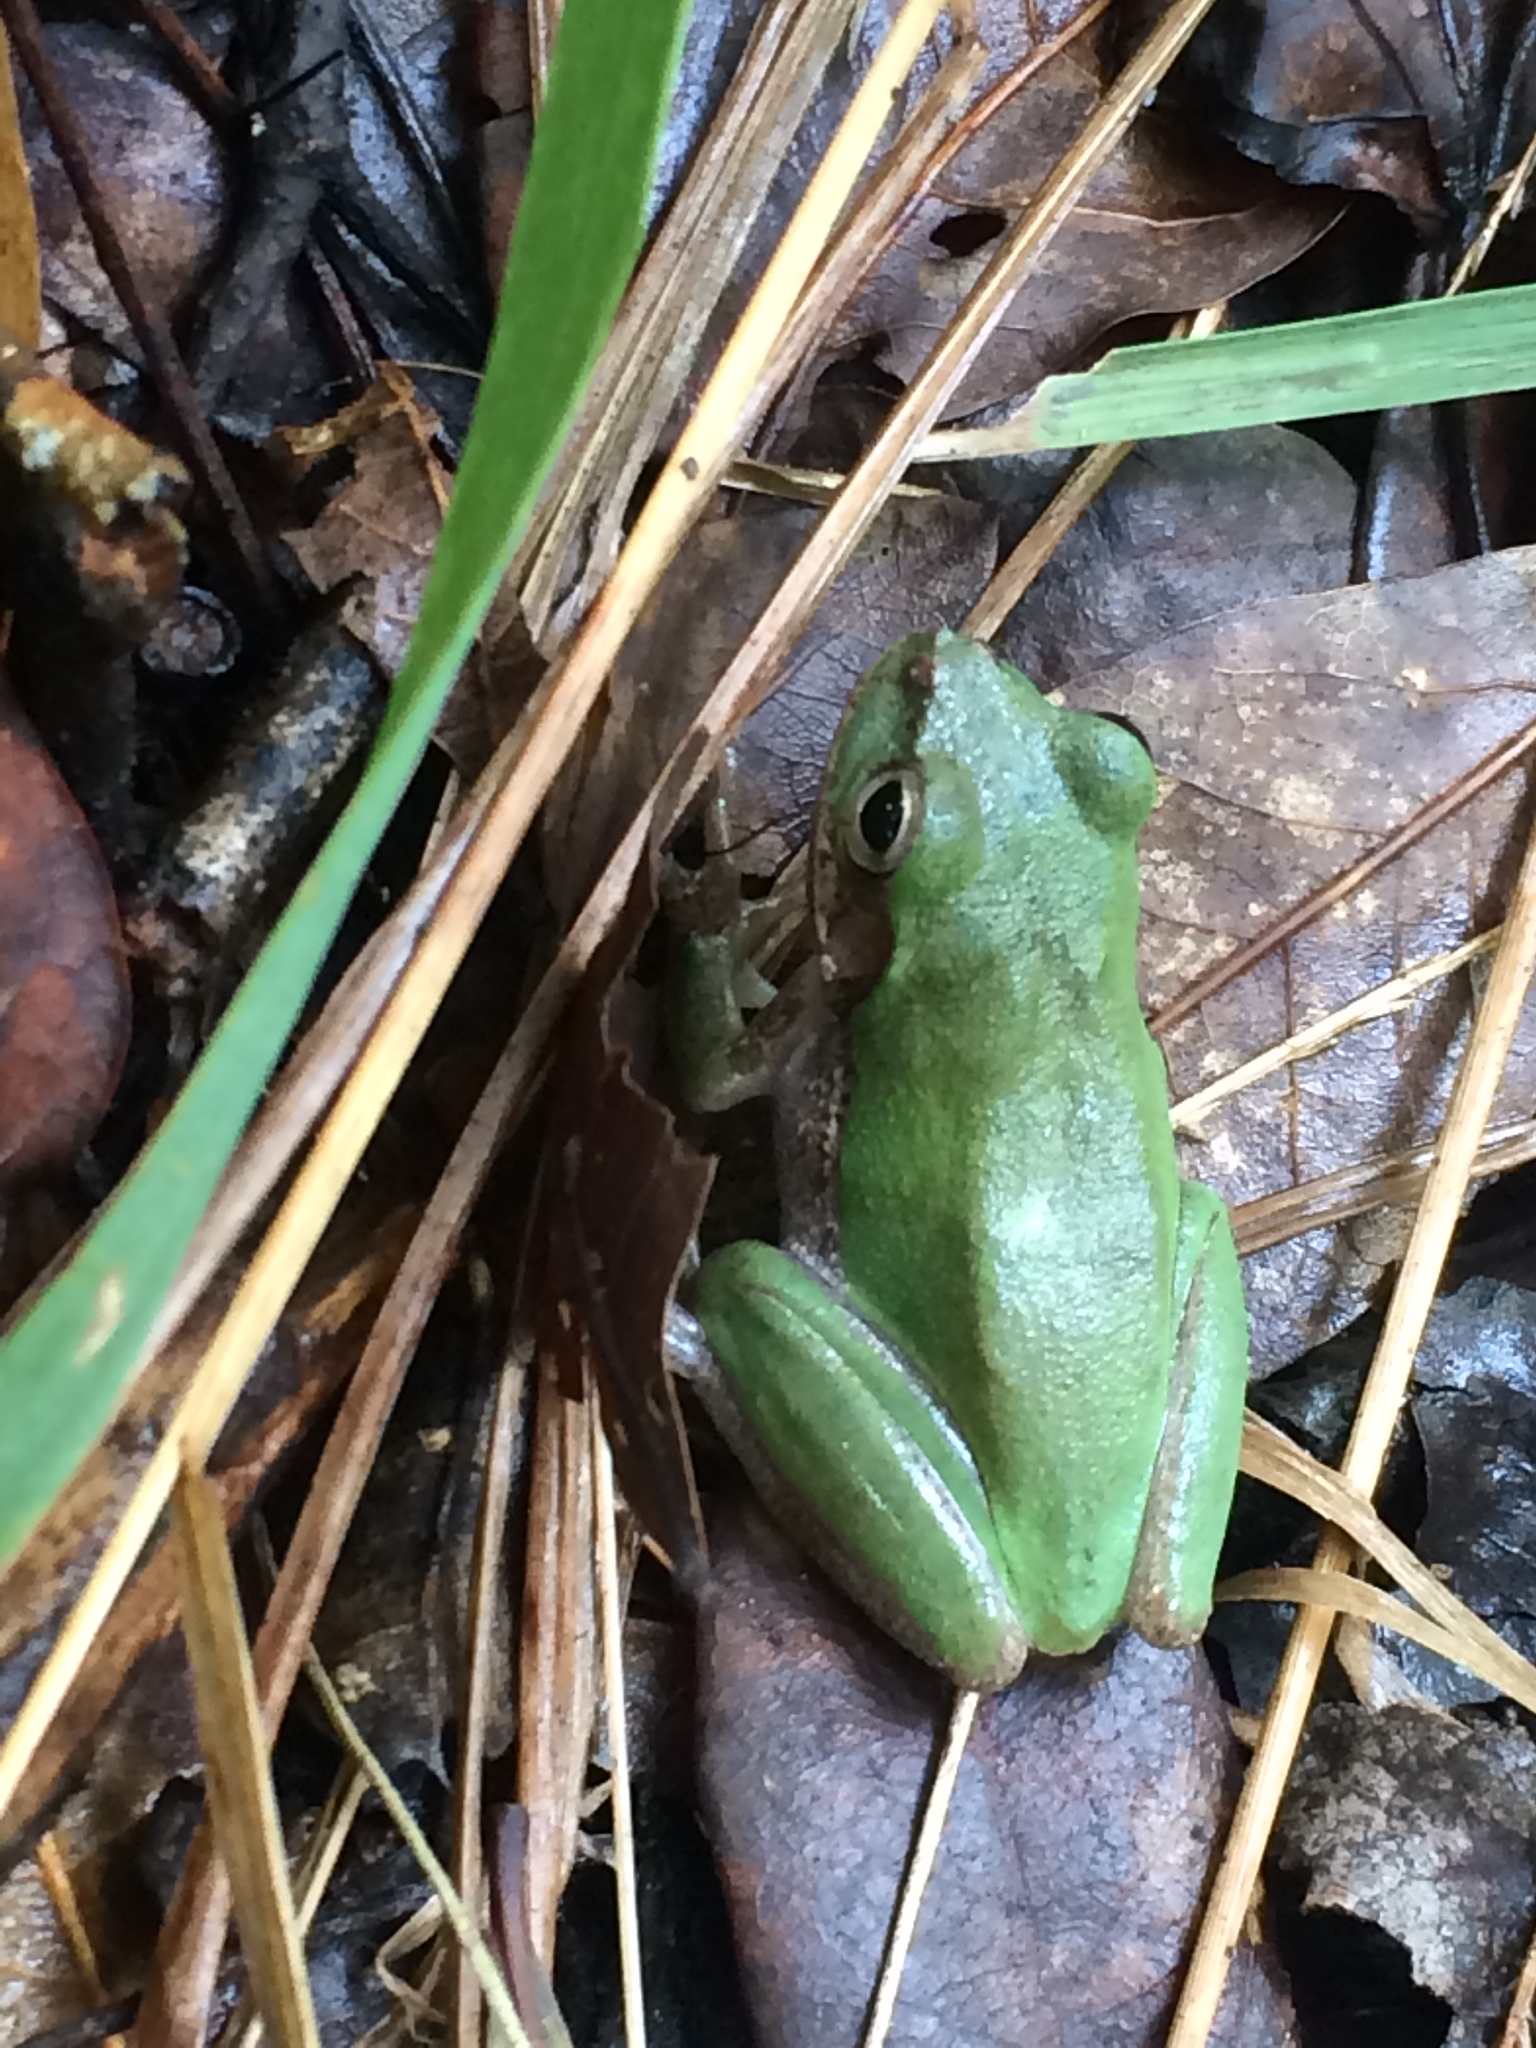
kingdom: Animalia
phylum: Chordata
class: Amphibia
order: Anura
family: Hylidae
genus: Dryophytes
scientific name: Dryophytes squirellus
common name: Squirrel treefrog
